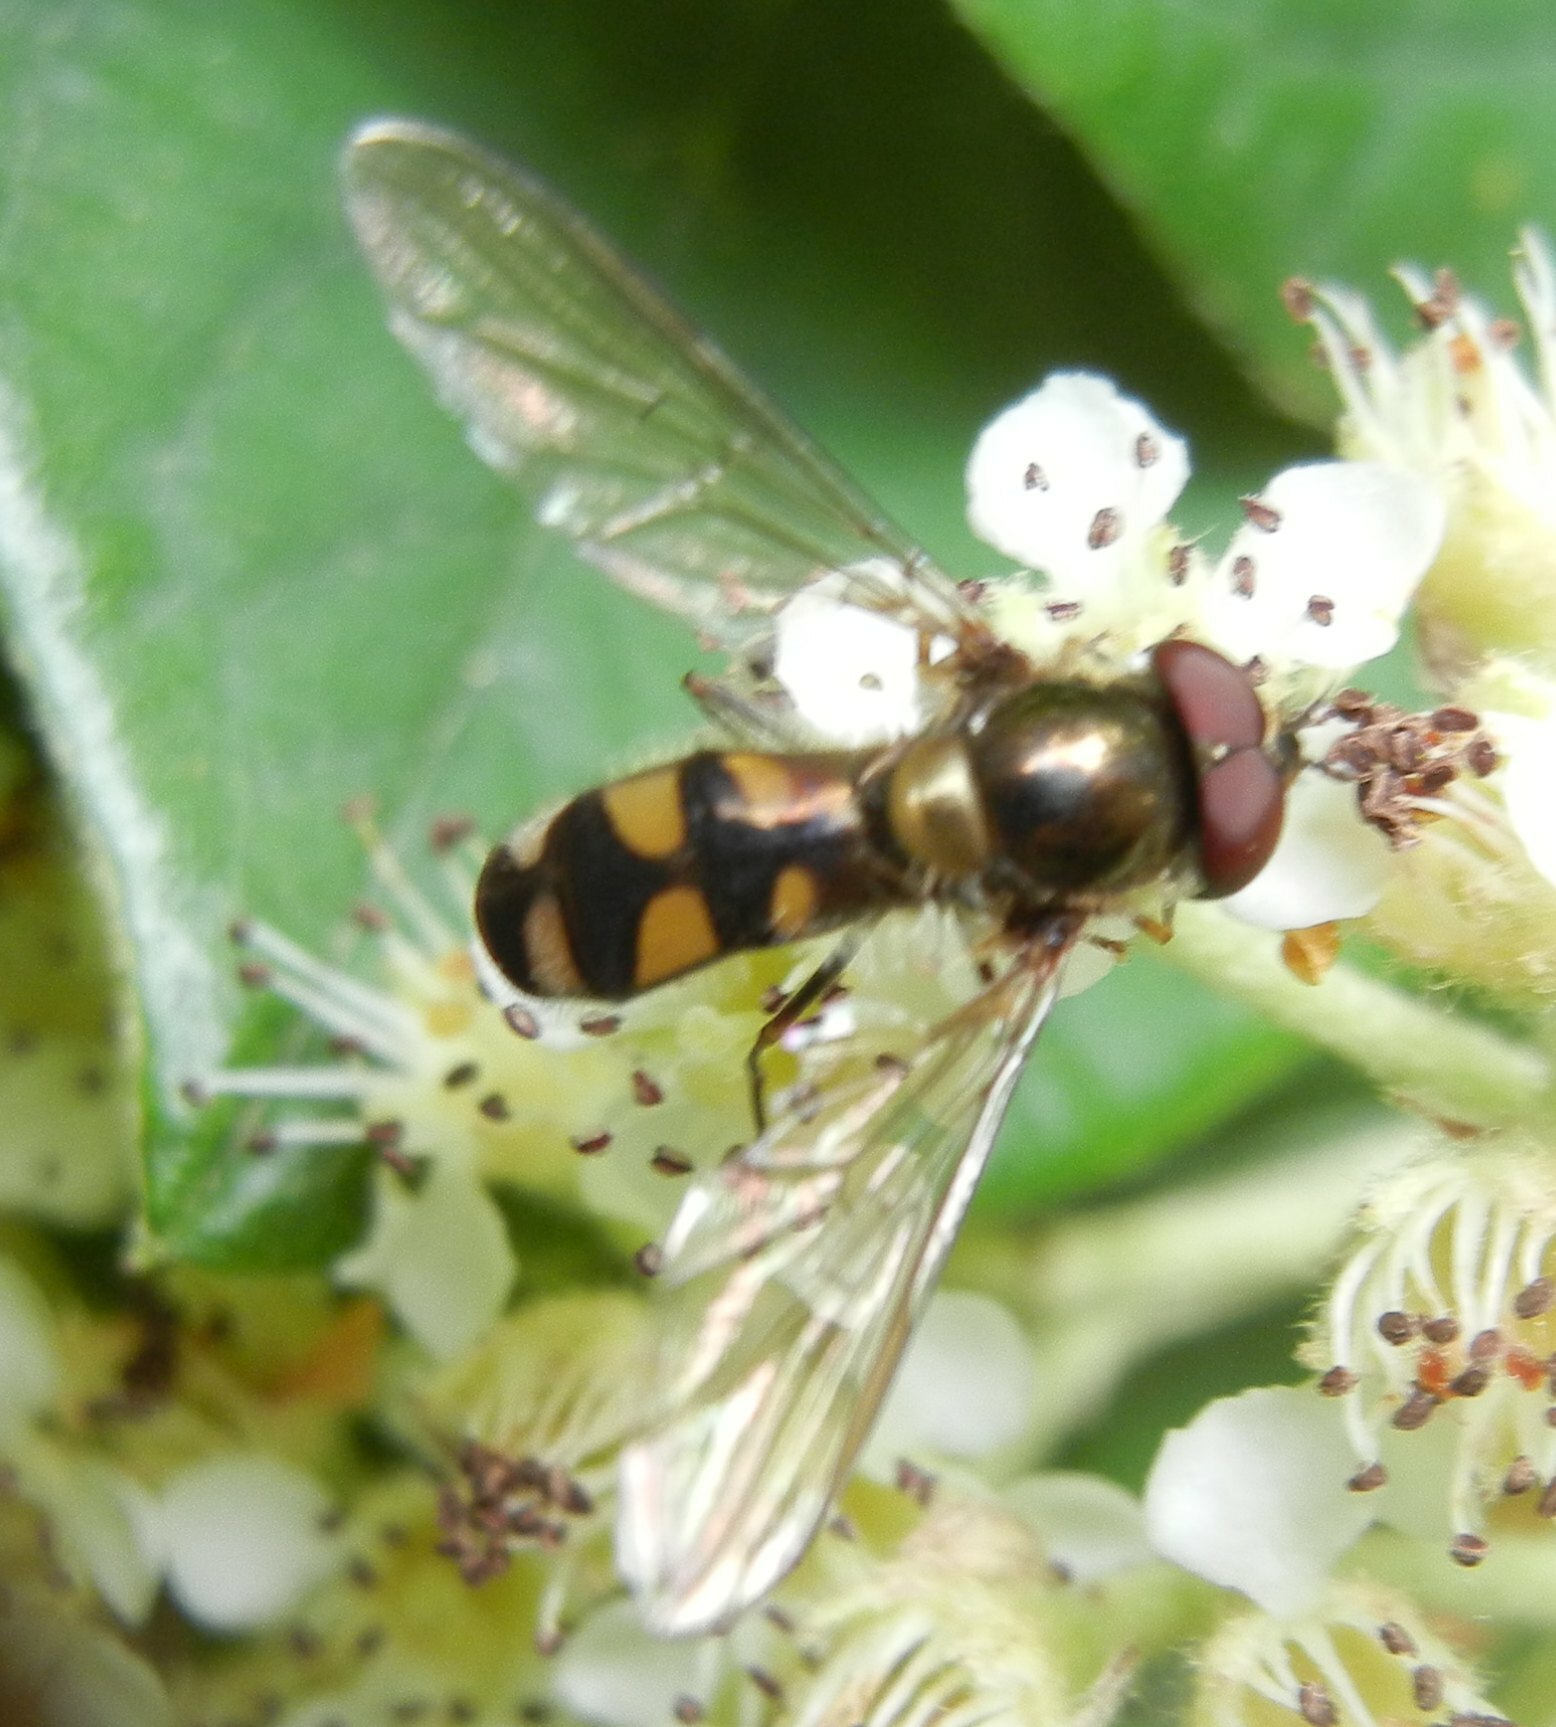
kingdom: Animalia
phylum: Arthropoda
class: Insecta
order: Diptera
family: Syrphidae
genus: Meliscaeva
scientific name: Meliscaeva auricollis
